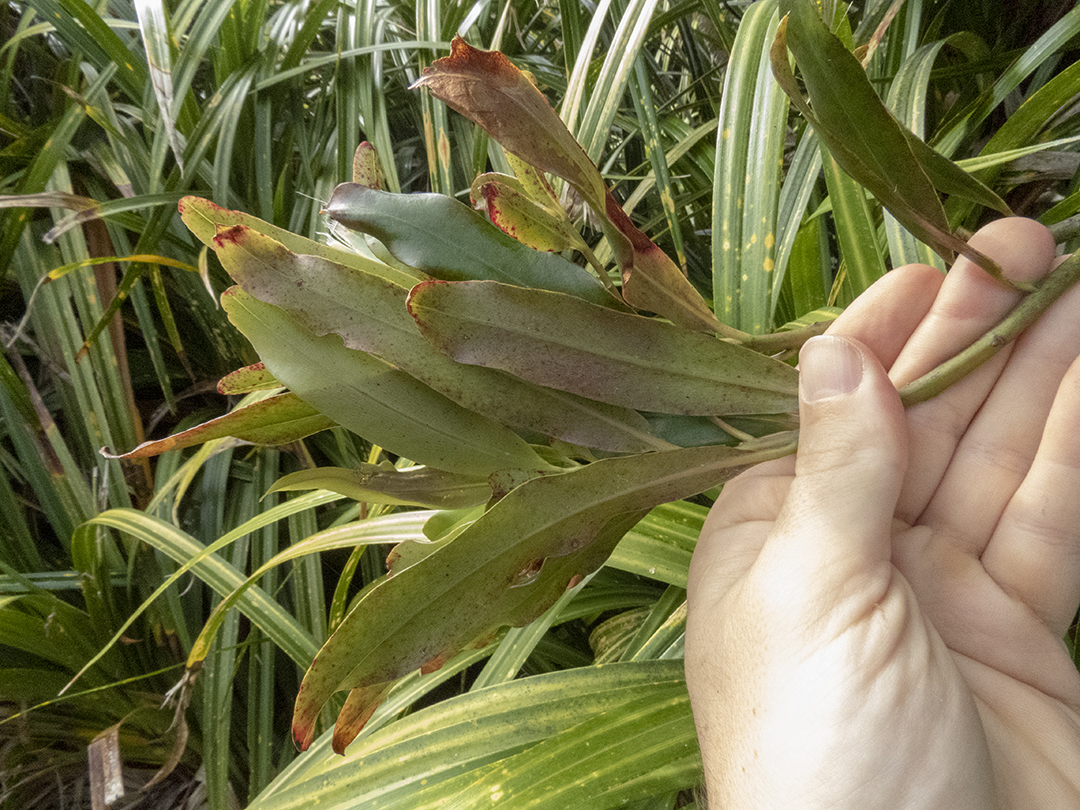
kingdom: Plantae
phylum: Tracheophyta
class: Magnoliopsida
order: Ericales
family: Primulaceae
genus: Myrsine
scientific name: Myrsine salicina
